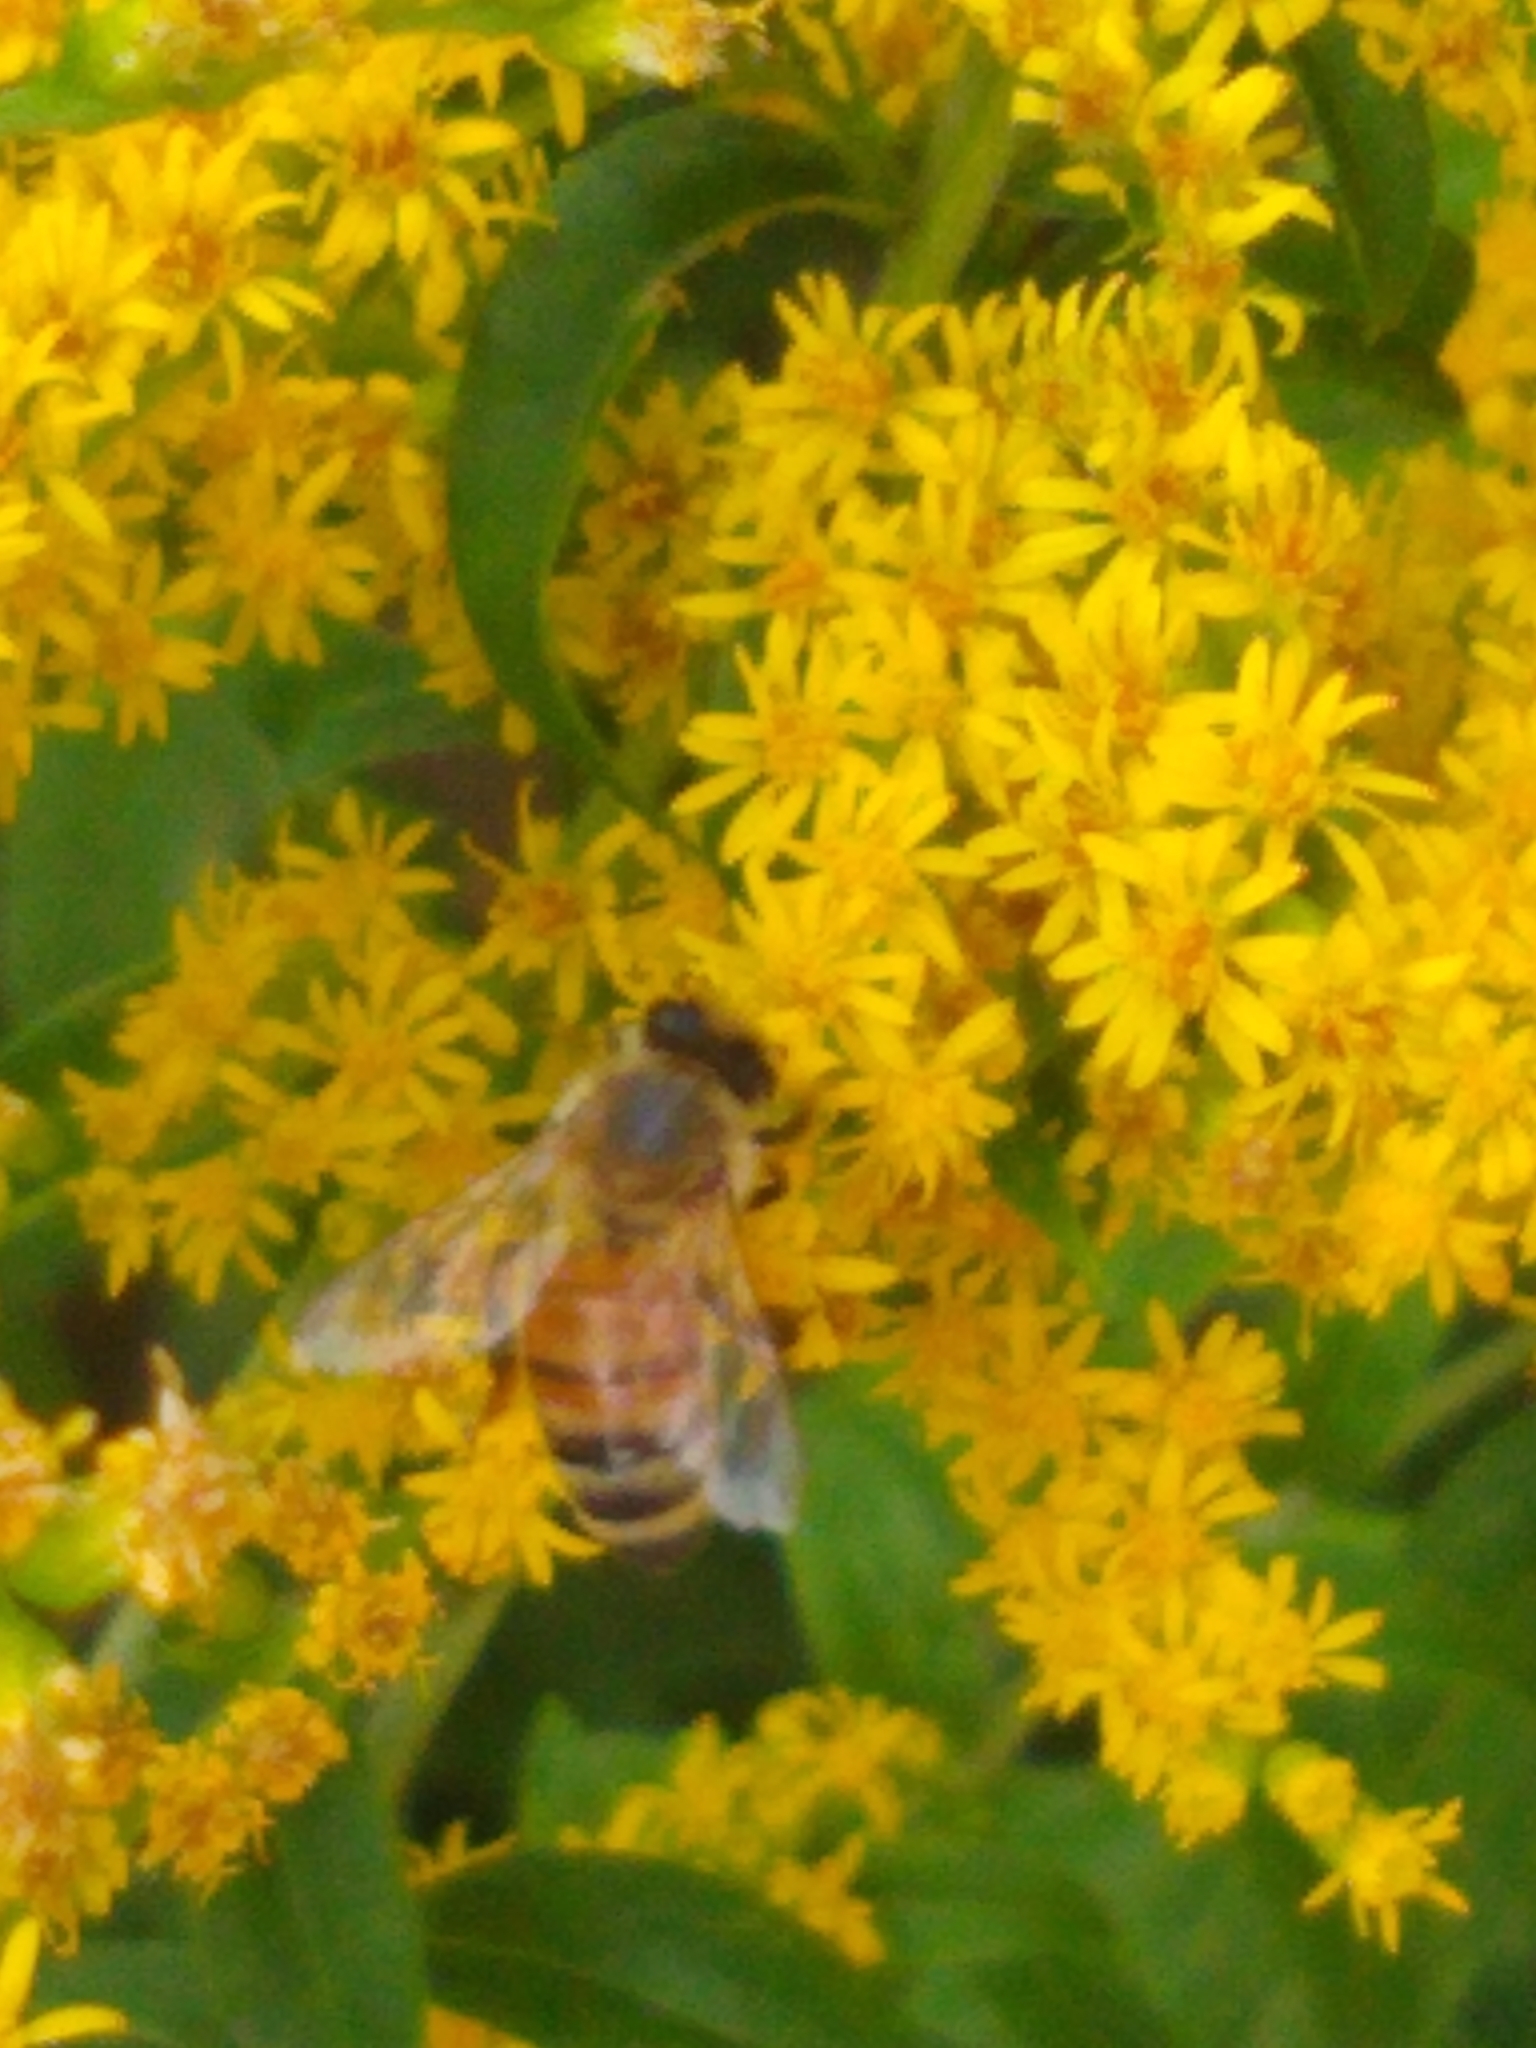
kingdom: Animalia
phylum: Arthropoda
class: Insecta
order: Hymenoptera
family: Apidae
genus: Apis
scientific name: Apis mellifera
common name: Honey bee
